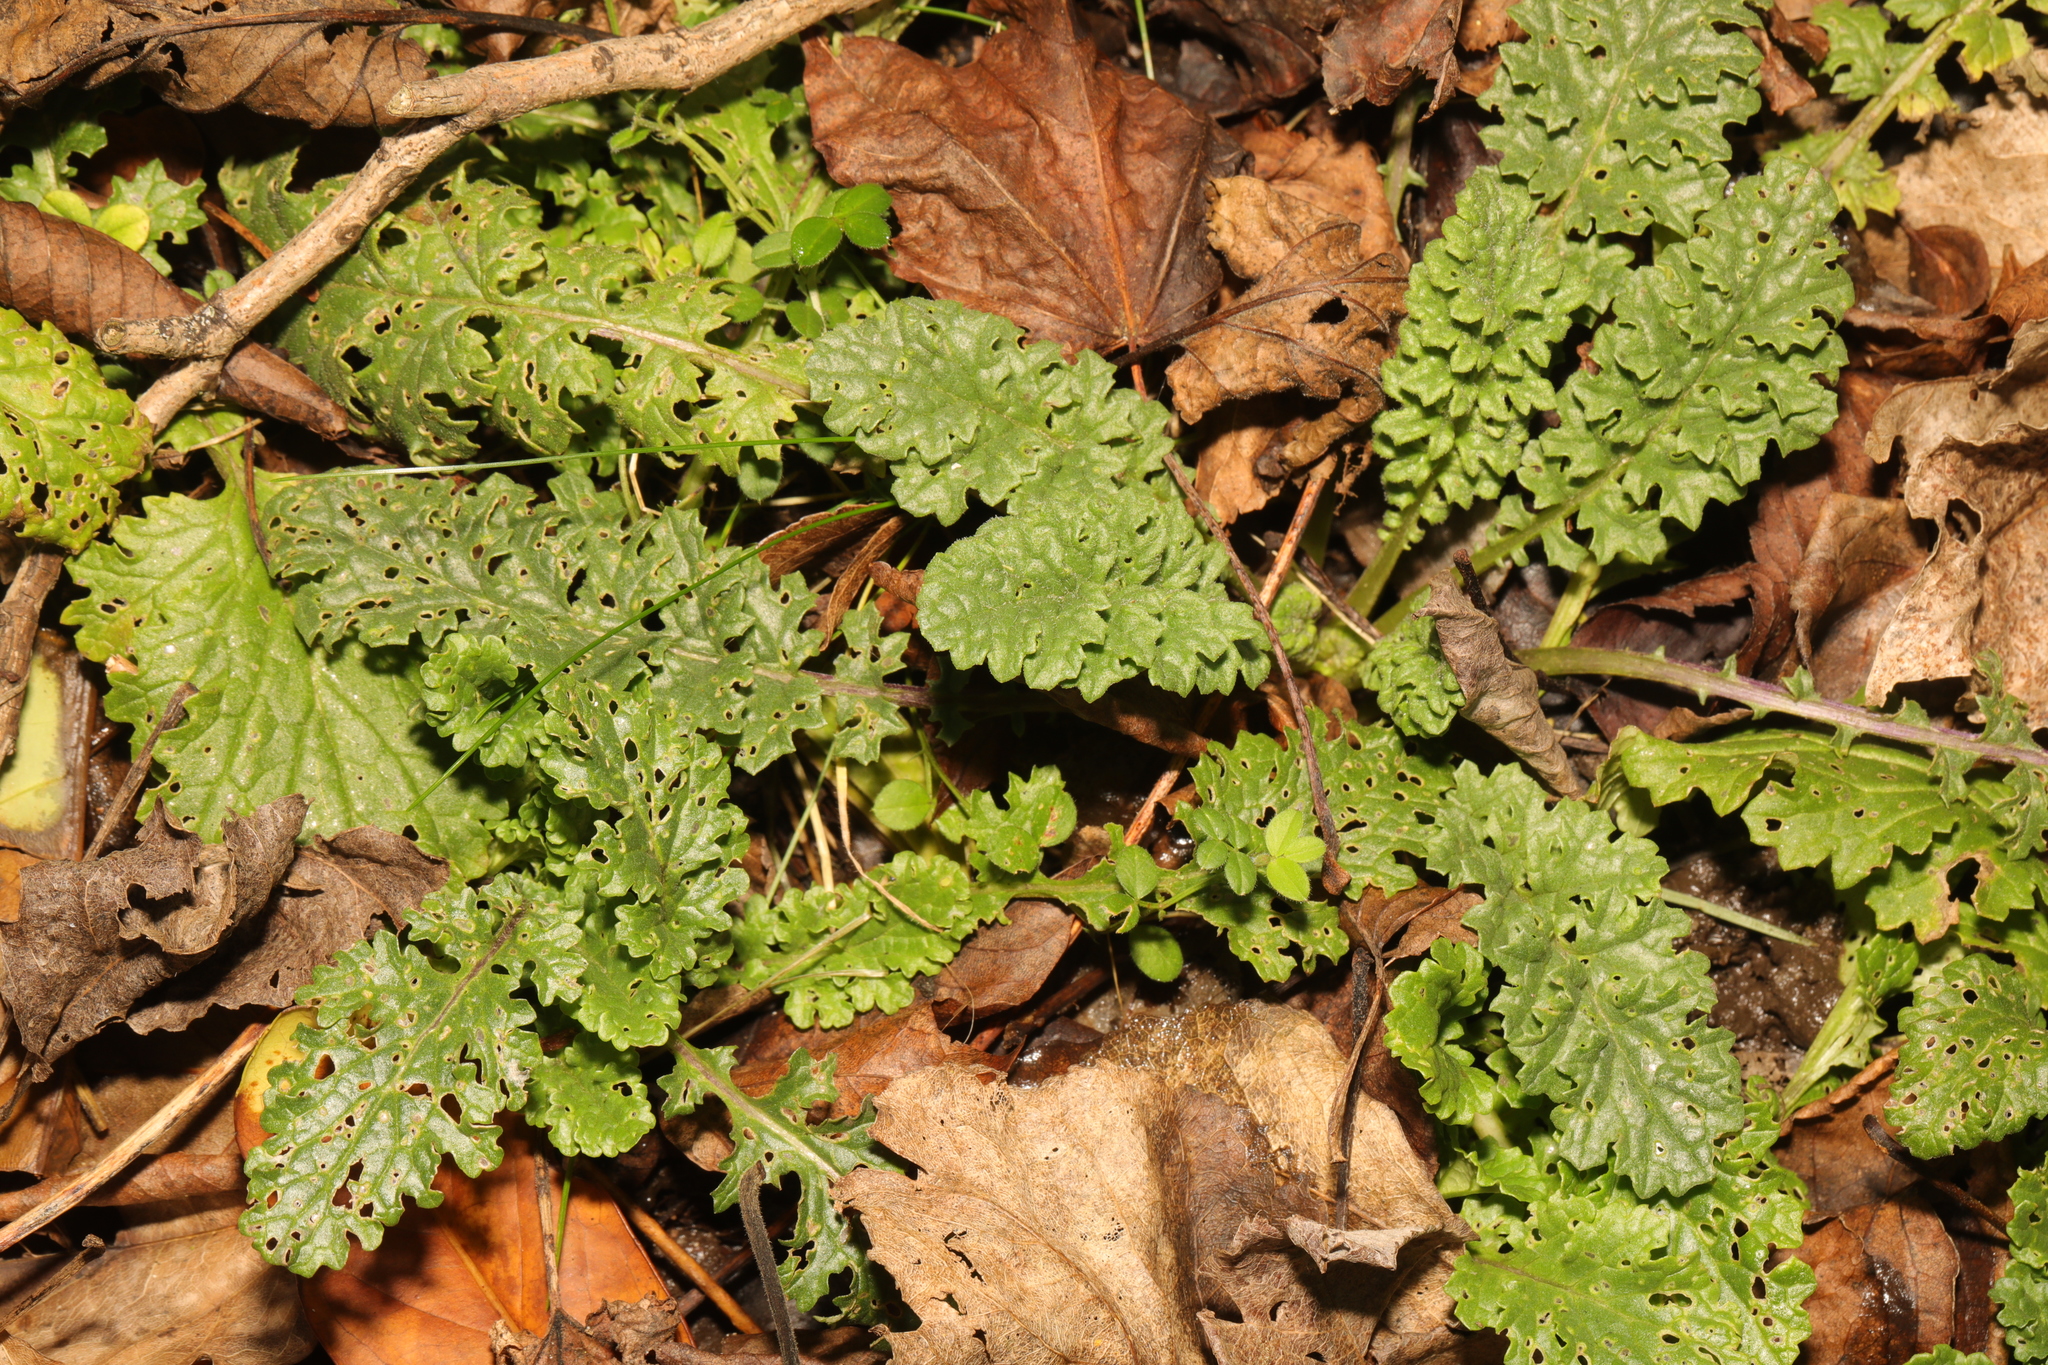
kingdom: Plantae
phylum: Tracheophyta
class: Magnoliopsida
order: Asterales
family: Asteraceae
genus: Jacobaea
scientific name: Jacobaea vulgaris
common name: Stinking willie
